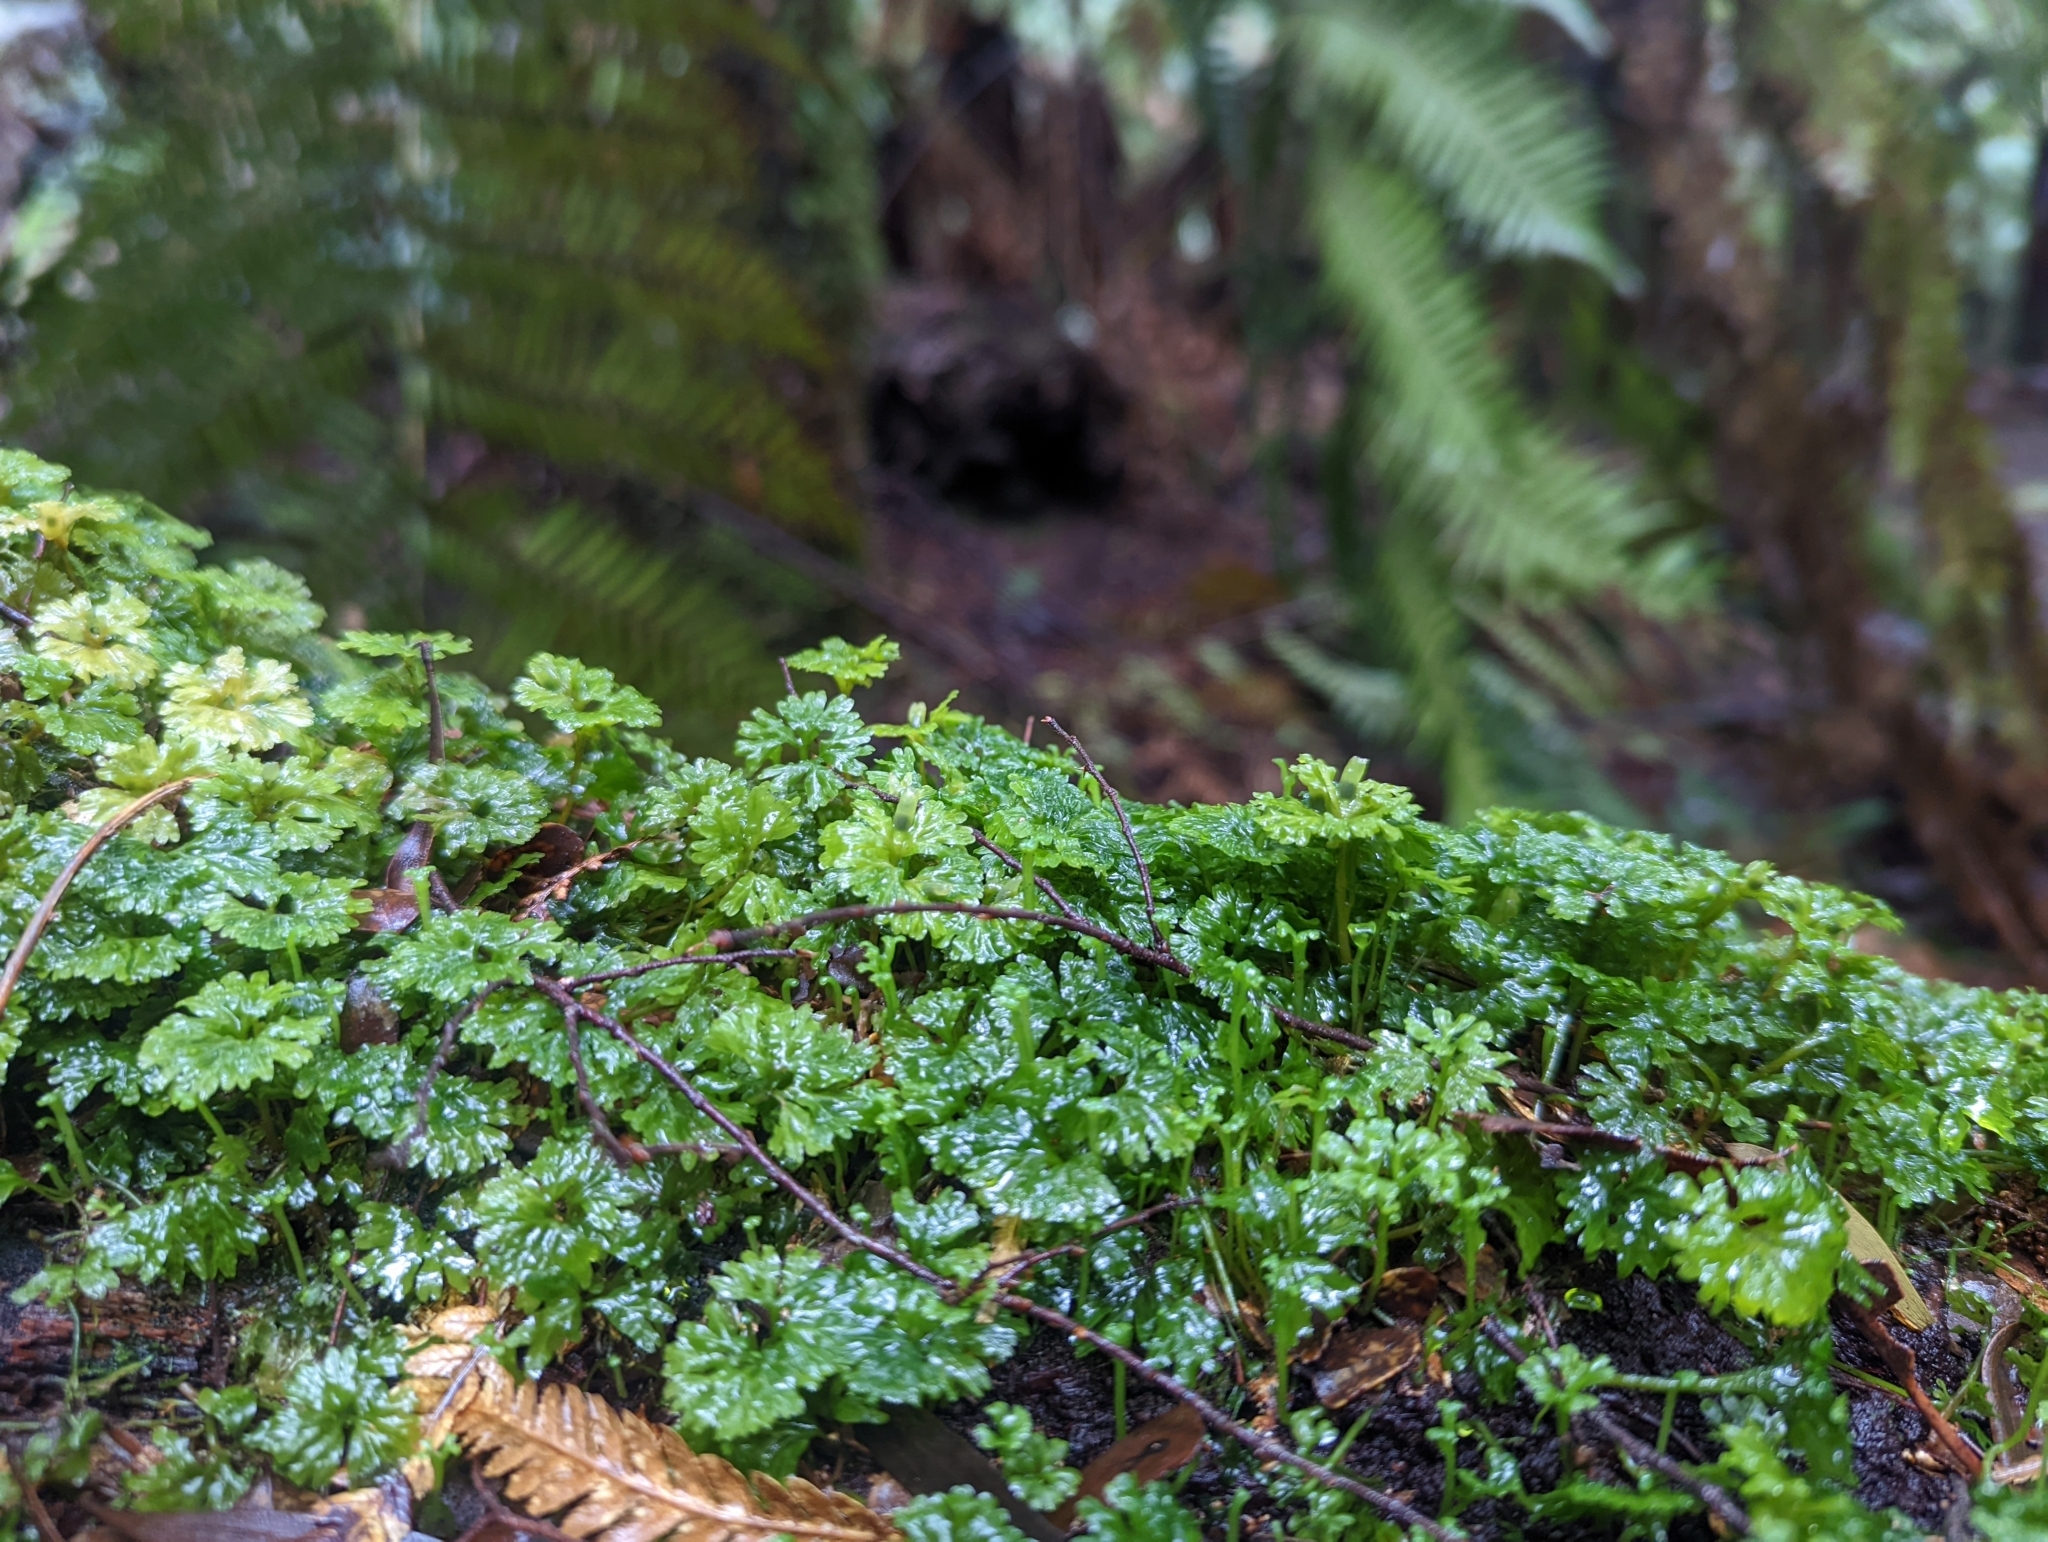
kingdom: Plantae
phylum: Marchantiophyta
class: Jungermanniopsida
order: Pallaviciniales
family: Hymenophytaceae
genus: Hymenophyton
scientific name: Hymenophyton flabellatum
